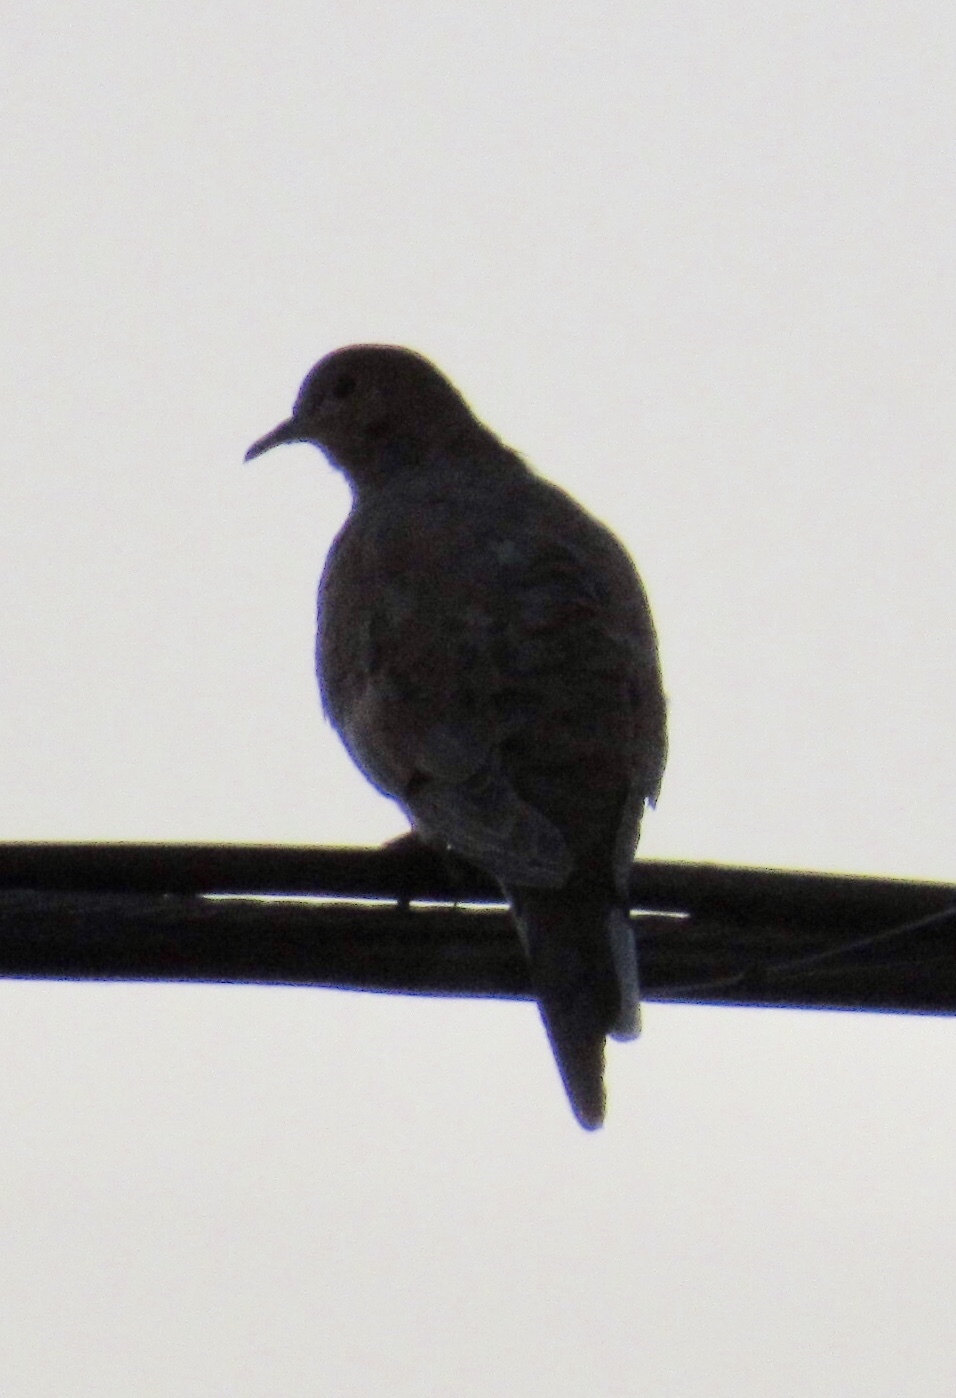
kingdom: Animalia
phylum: Chordata
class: Aves
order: Columbiformes
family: Columbidae
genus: Zenaida
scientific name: Zenaida macroura
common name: Mourning dove
